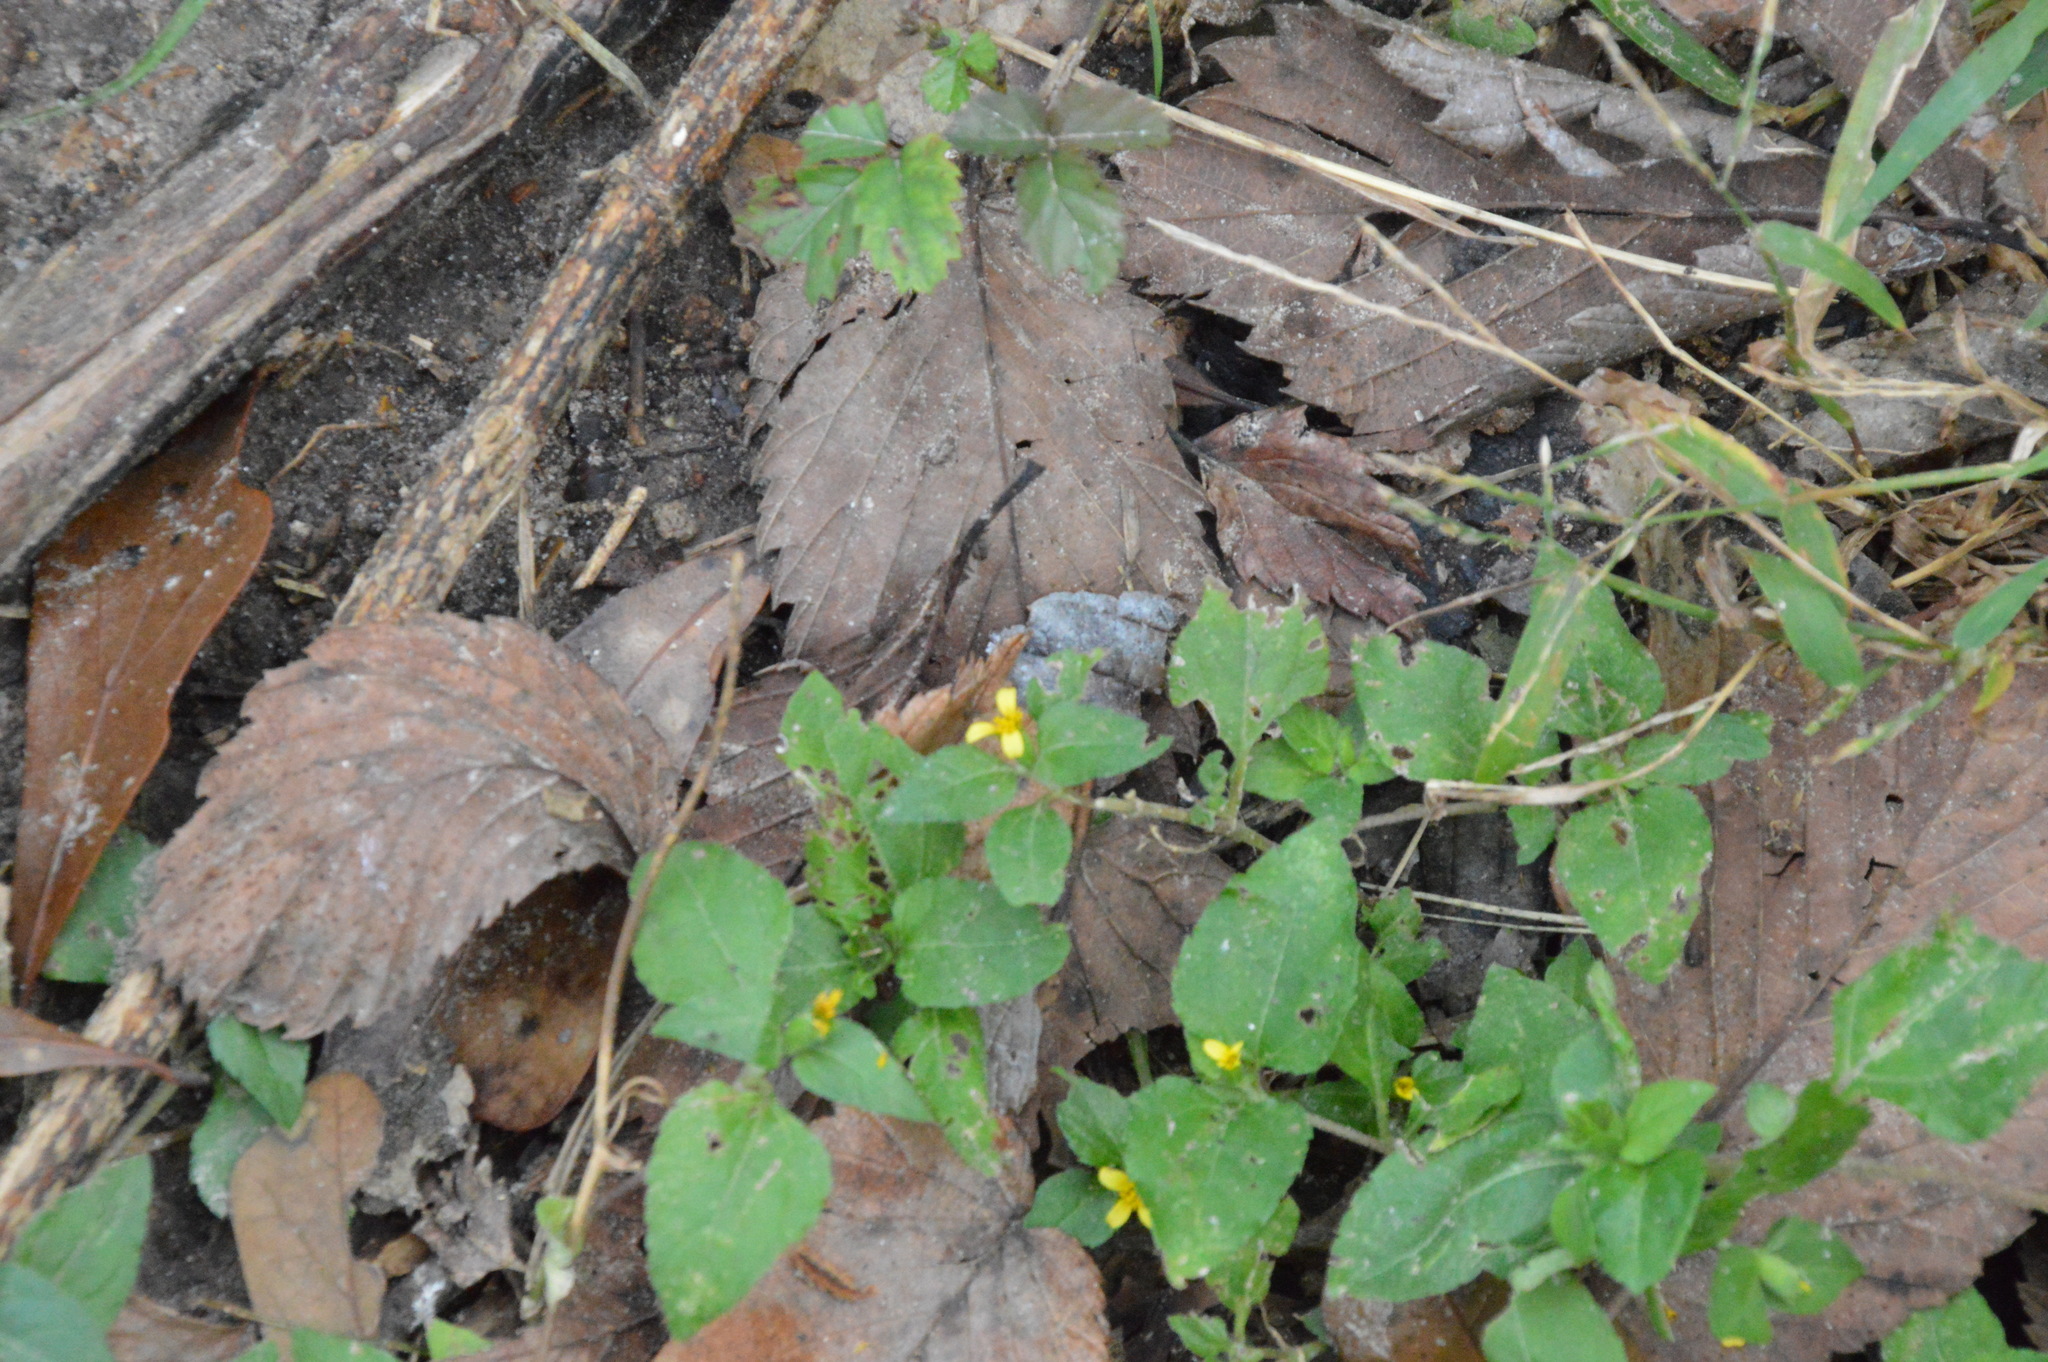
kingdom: Plantae
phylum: Tracheophyta
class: Magnoliopsida
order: Asterales
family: Asteraceae
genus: Calyptocarpus
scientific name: Calyptocarpus vialis
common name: Straggler daisy
